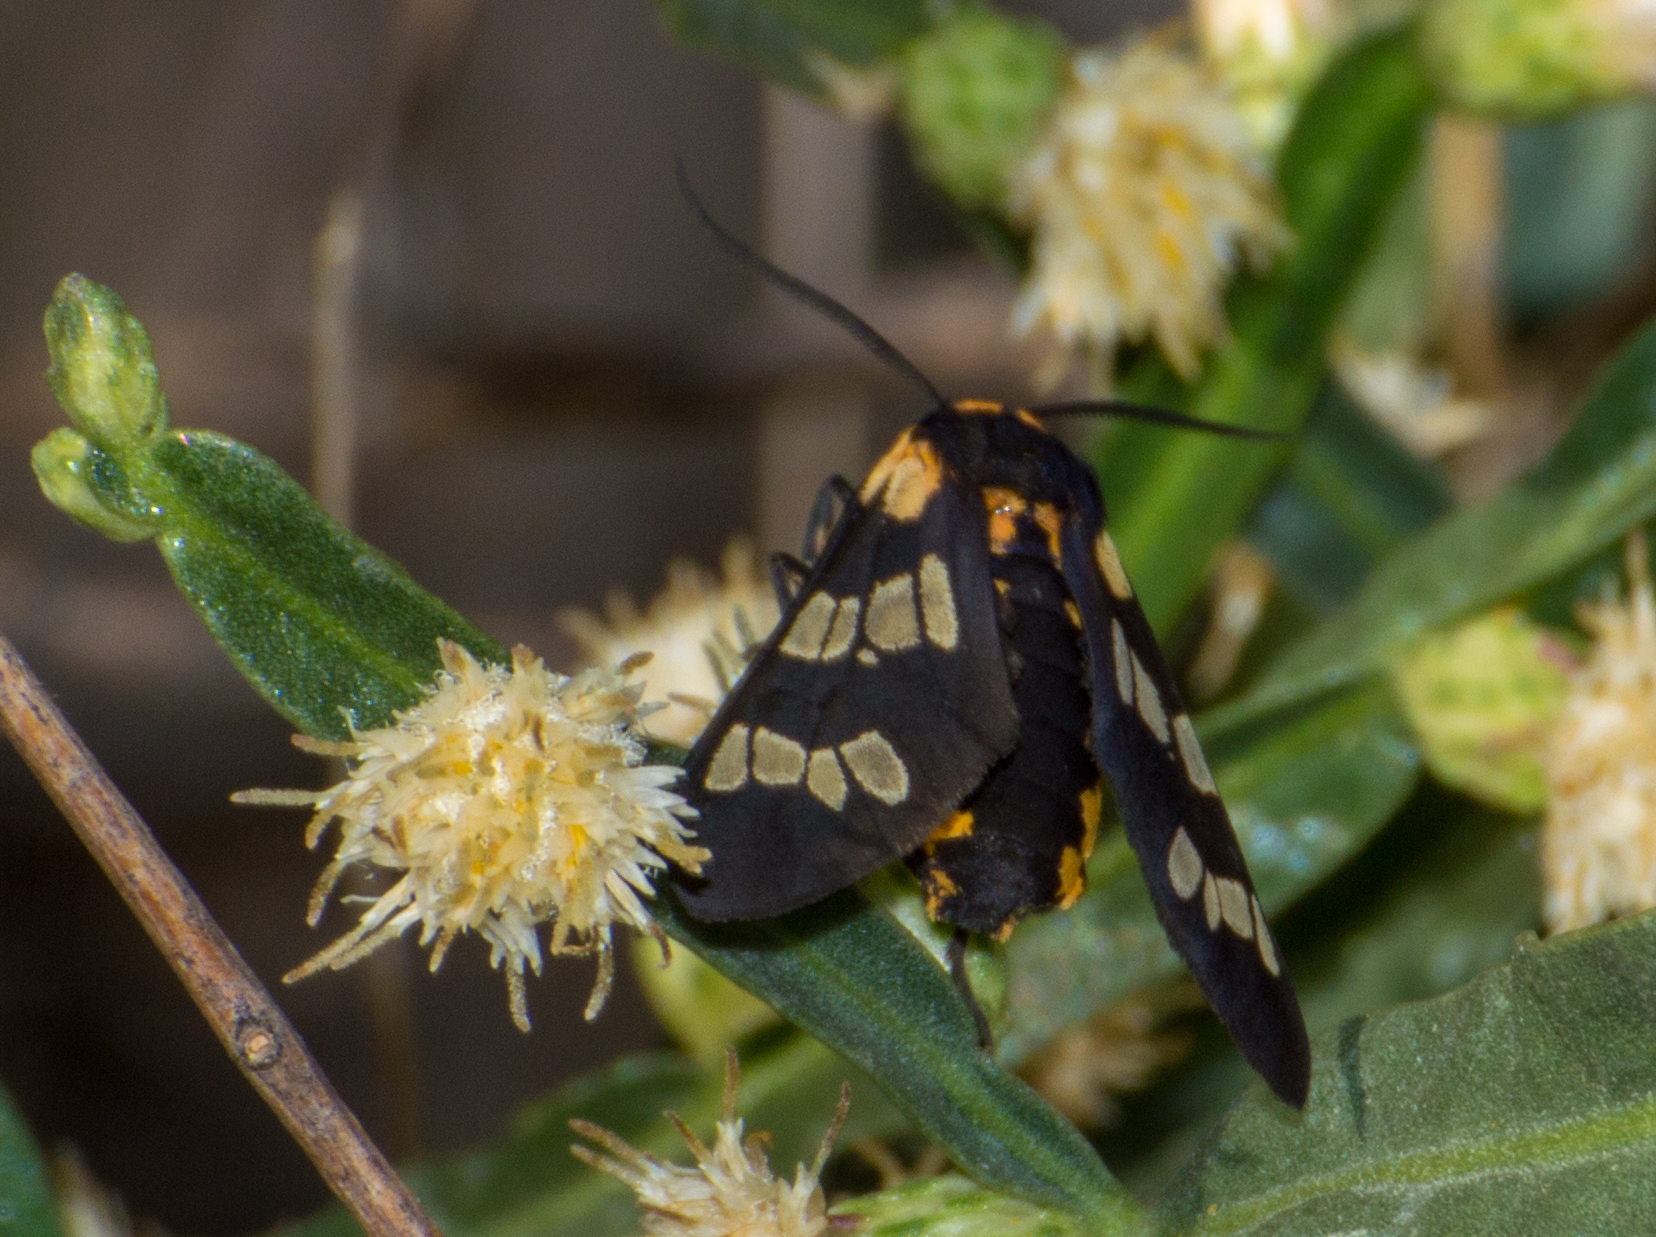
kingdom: Animalia
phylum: Arthropoda
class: Insecta
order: Lepidoptera
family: Erebidae
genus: Eurata
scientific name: Eurata
